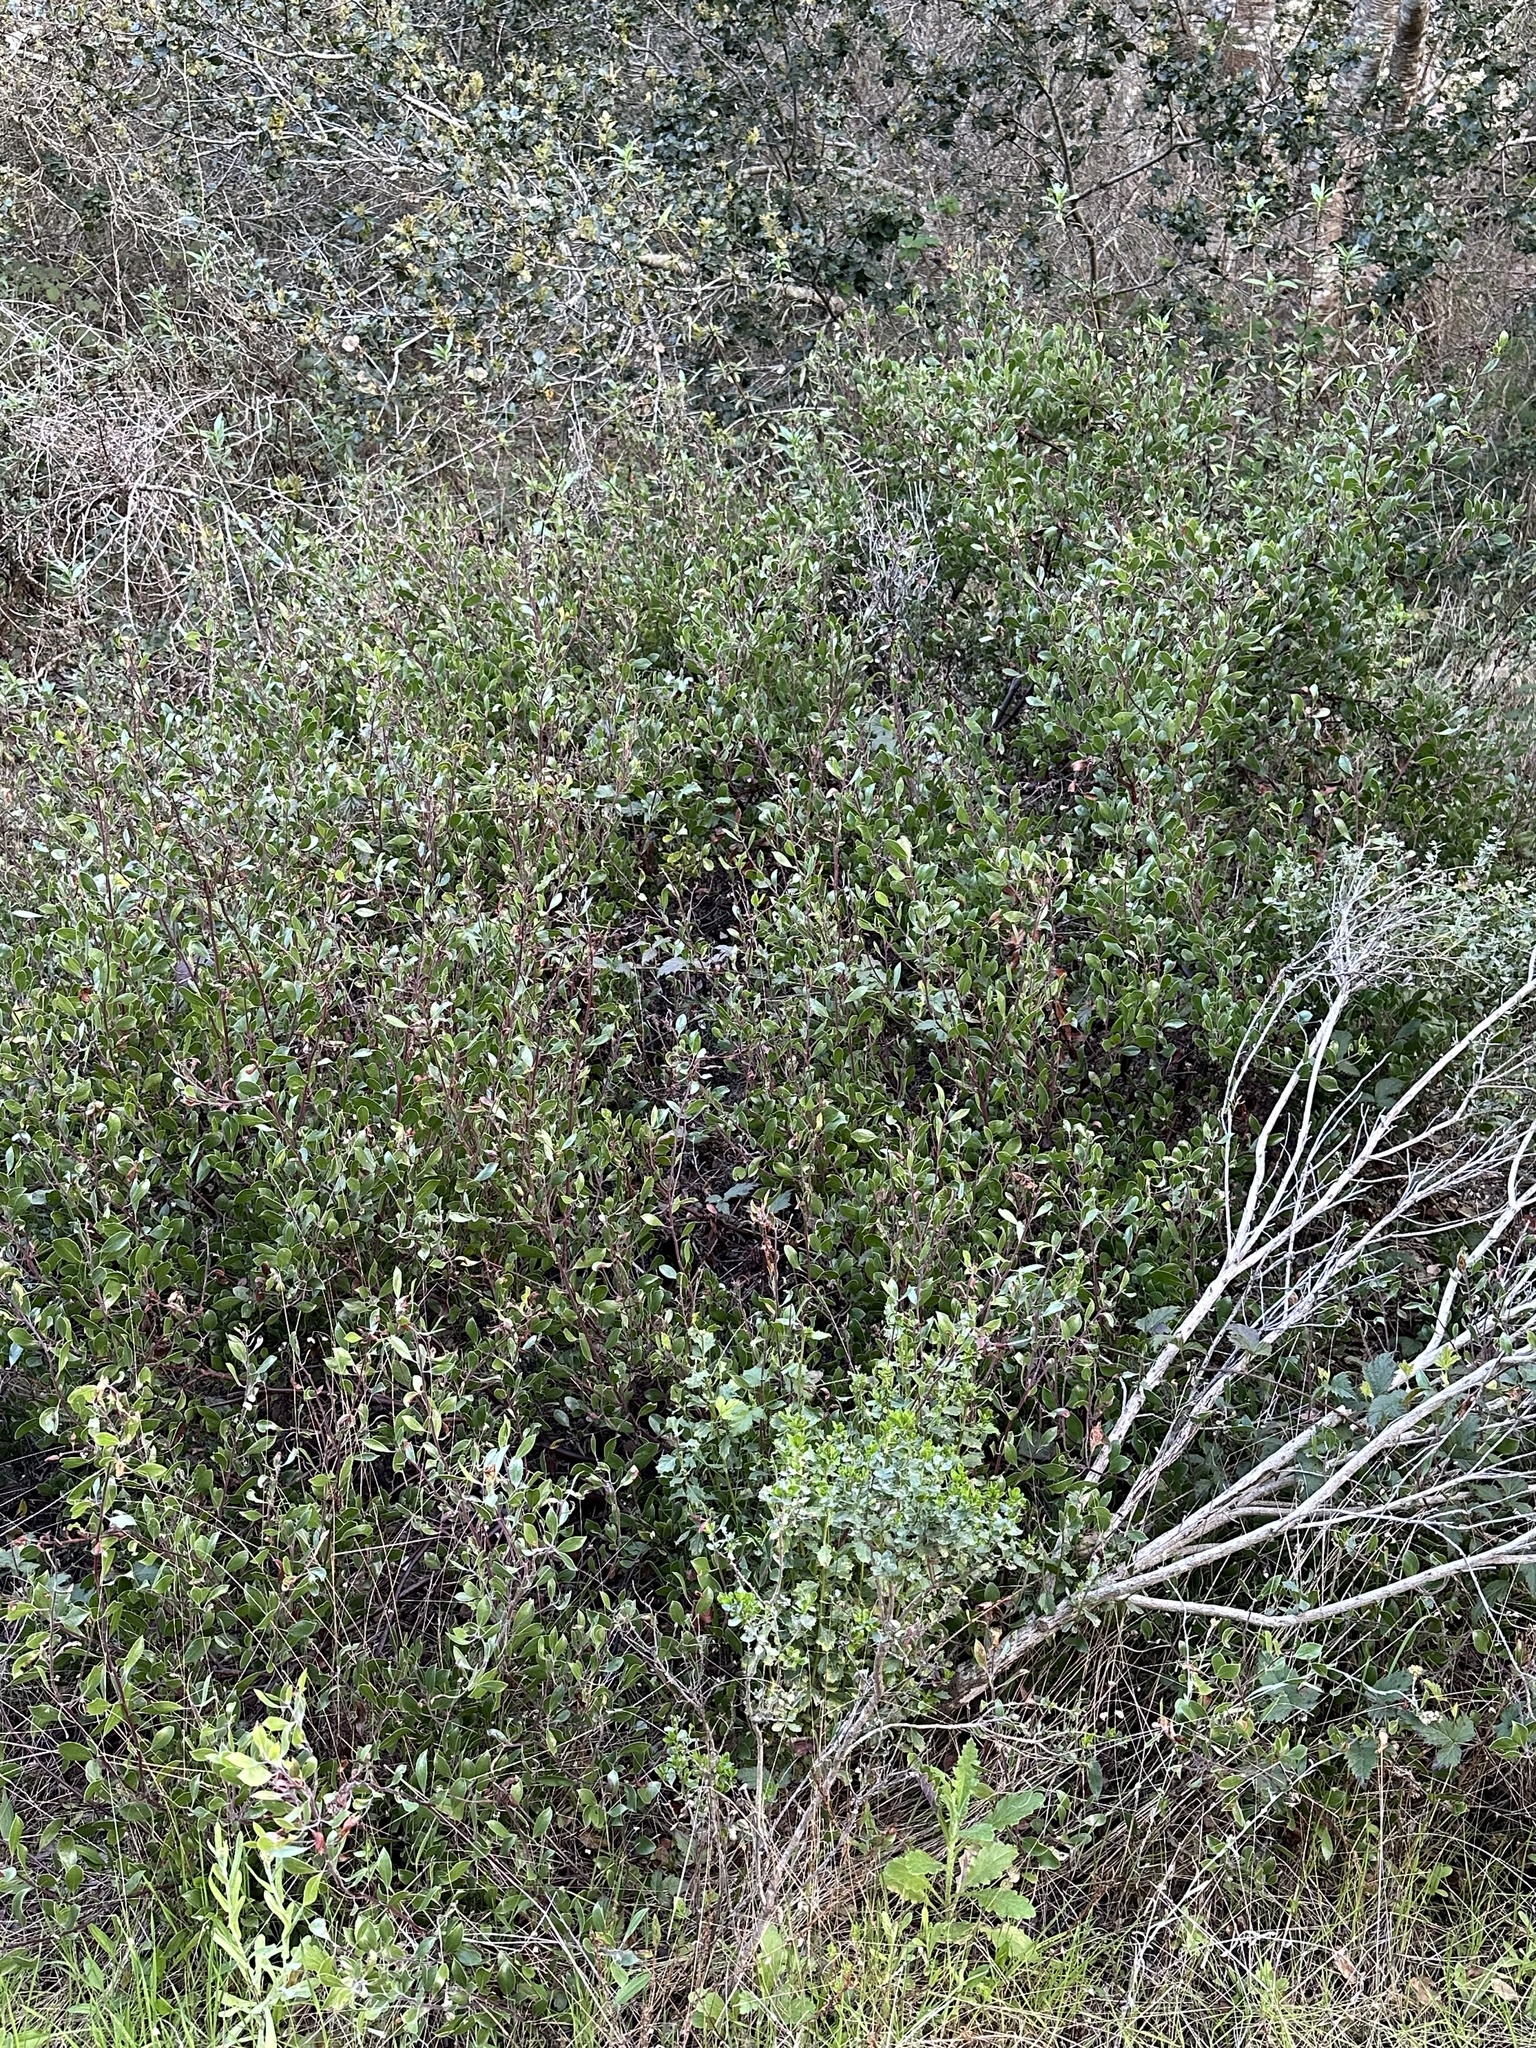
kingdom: Plantae
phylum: Tracheophyta
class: Magnoliopsida
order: Ericales
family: Ericaceae
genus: Arctostaphylos
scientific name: Arctostaphylos hookeri
